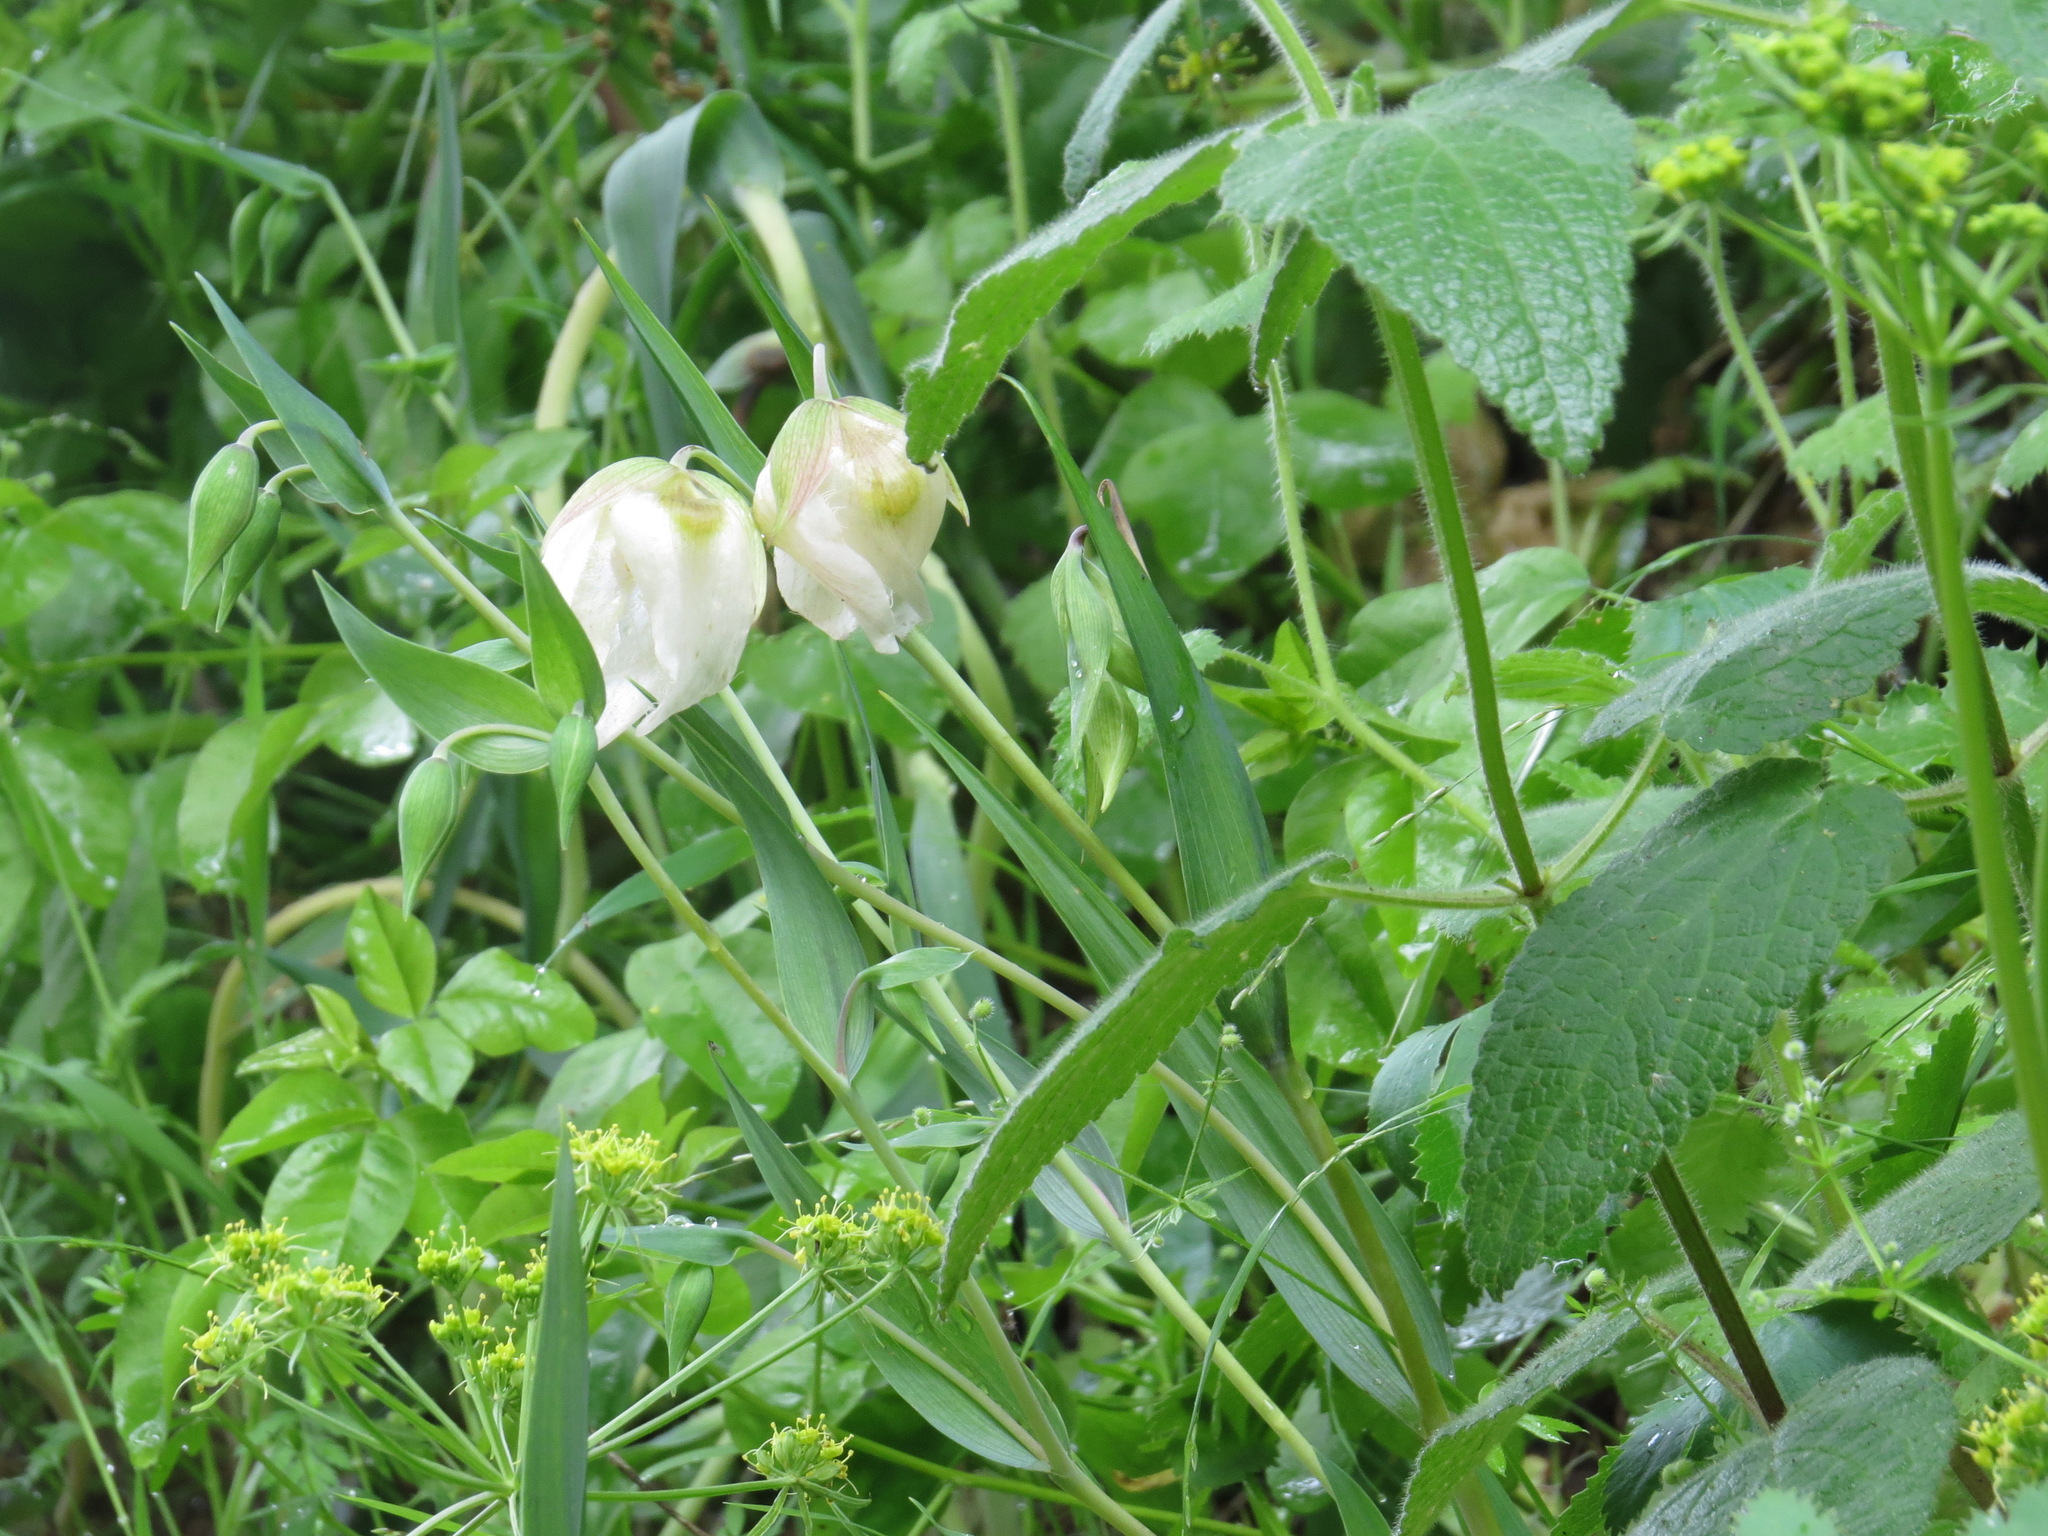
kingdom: Plantae
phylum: Tracheophyta
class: Liliopsida
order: Liliales
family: Liliaceae
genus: Calochortus
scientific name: Calochortus albus
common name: Fairy-lantern
